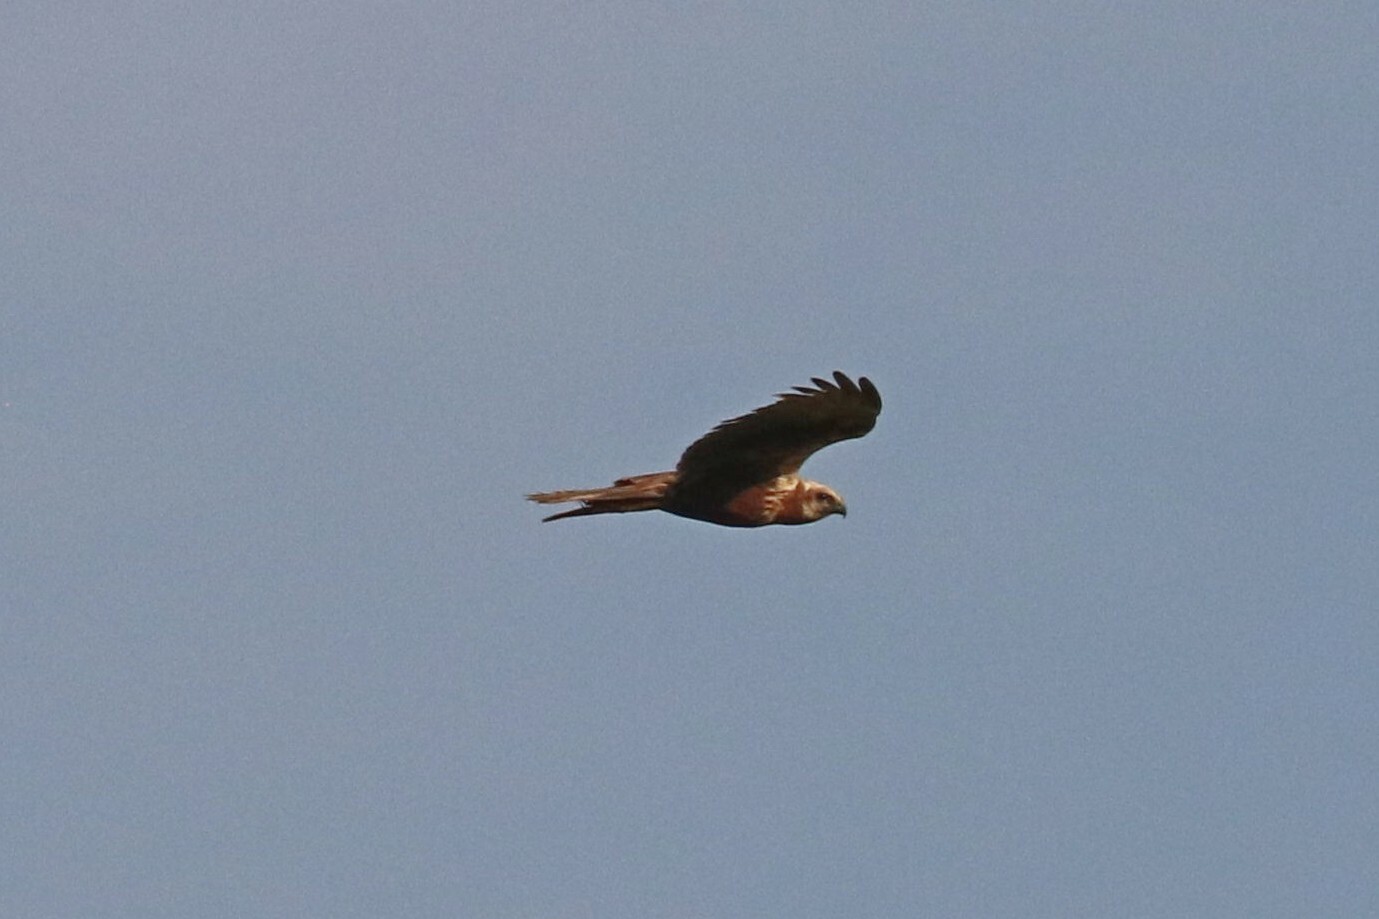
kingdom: Animalia
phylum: Chordata
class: Aves
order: Accipitriformes
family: Accipitridae
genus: Circus
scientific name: Circus aeruginosus
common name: Western marsh harrier
